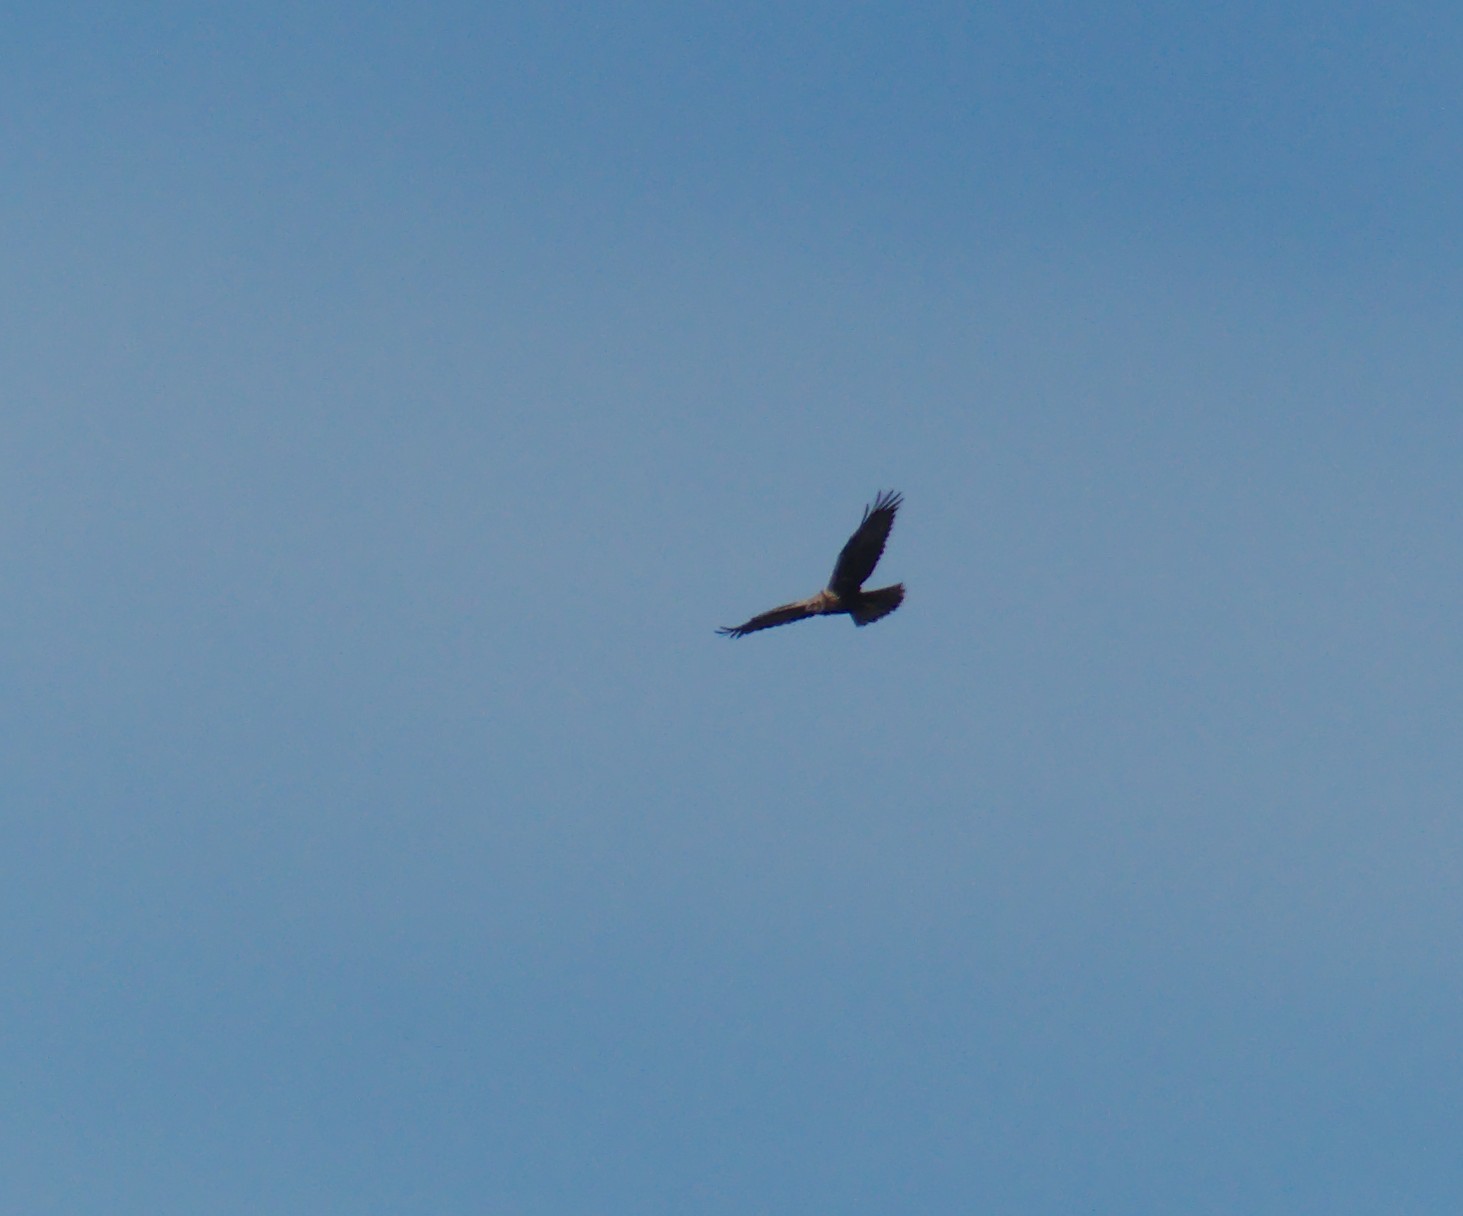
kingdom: Animalia
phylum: Chordata
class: Aves
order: Accipitriformes
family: Accipitridae
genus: Circus
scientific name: Circus aeruginosus
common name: Western marsh harrier
